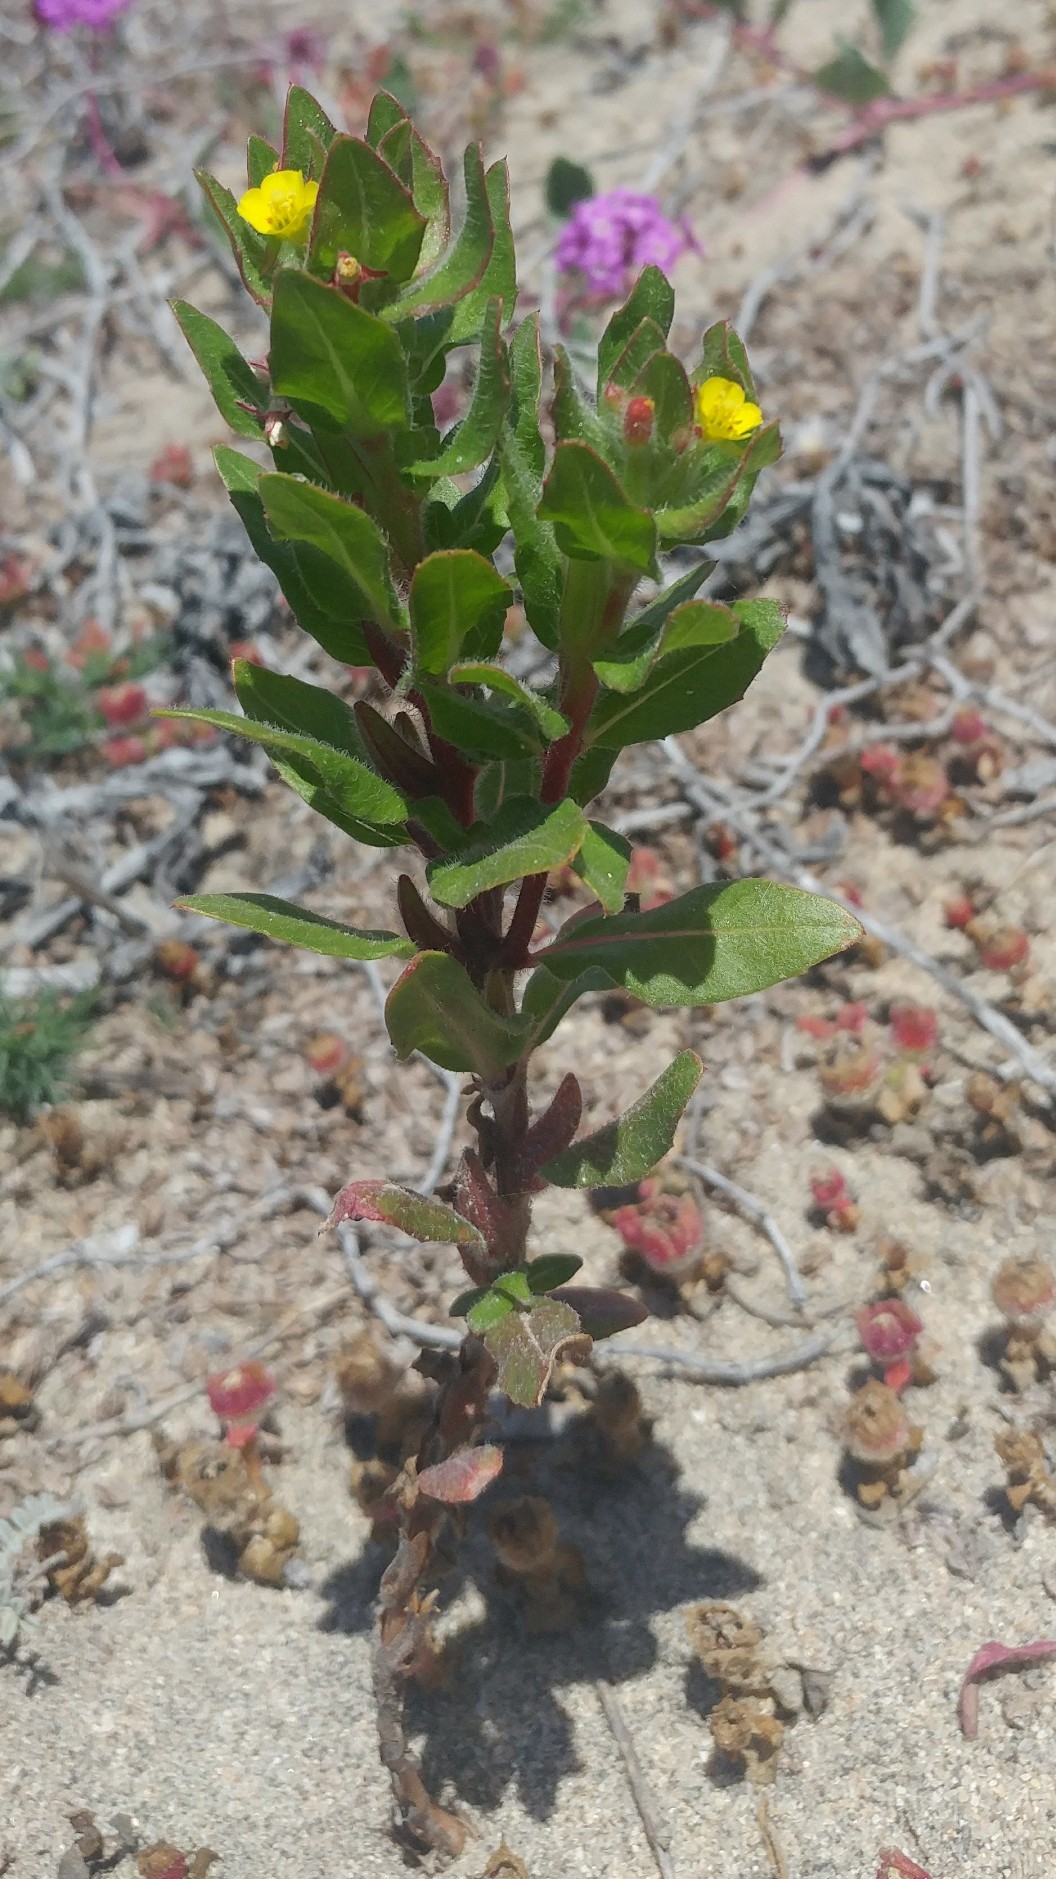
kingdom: Plantae
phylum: Tracheophyta
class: Magnoliopsida
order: Myrtales
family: Onagraceae
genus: Camissoniopsis
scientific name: Camissoniopsis guadalupensis
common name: Guadalupe suncup
